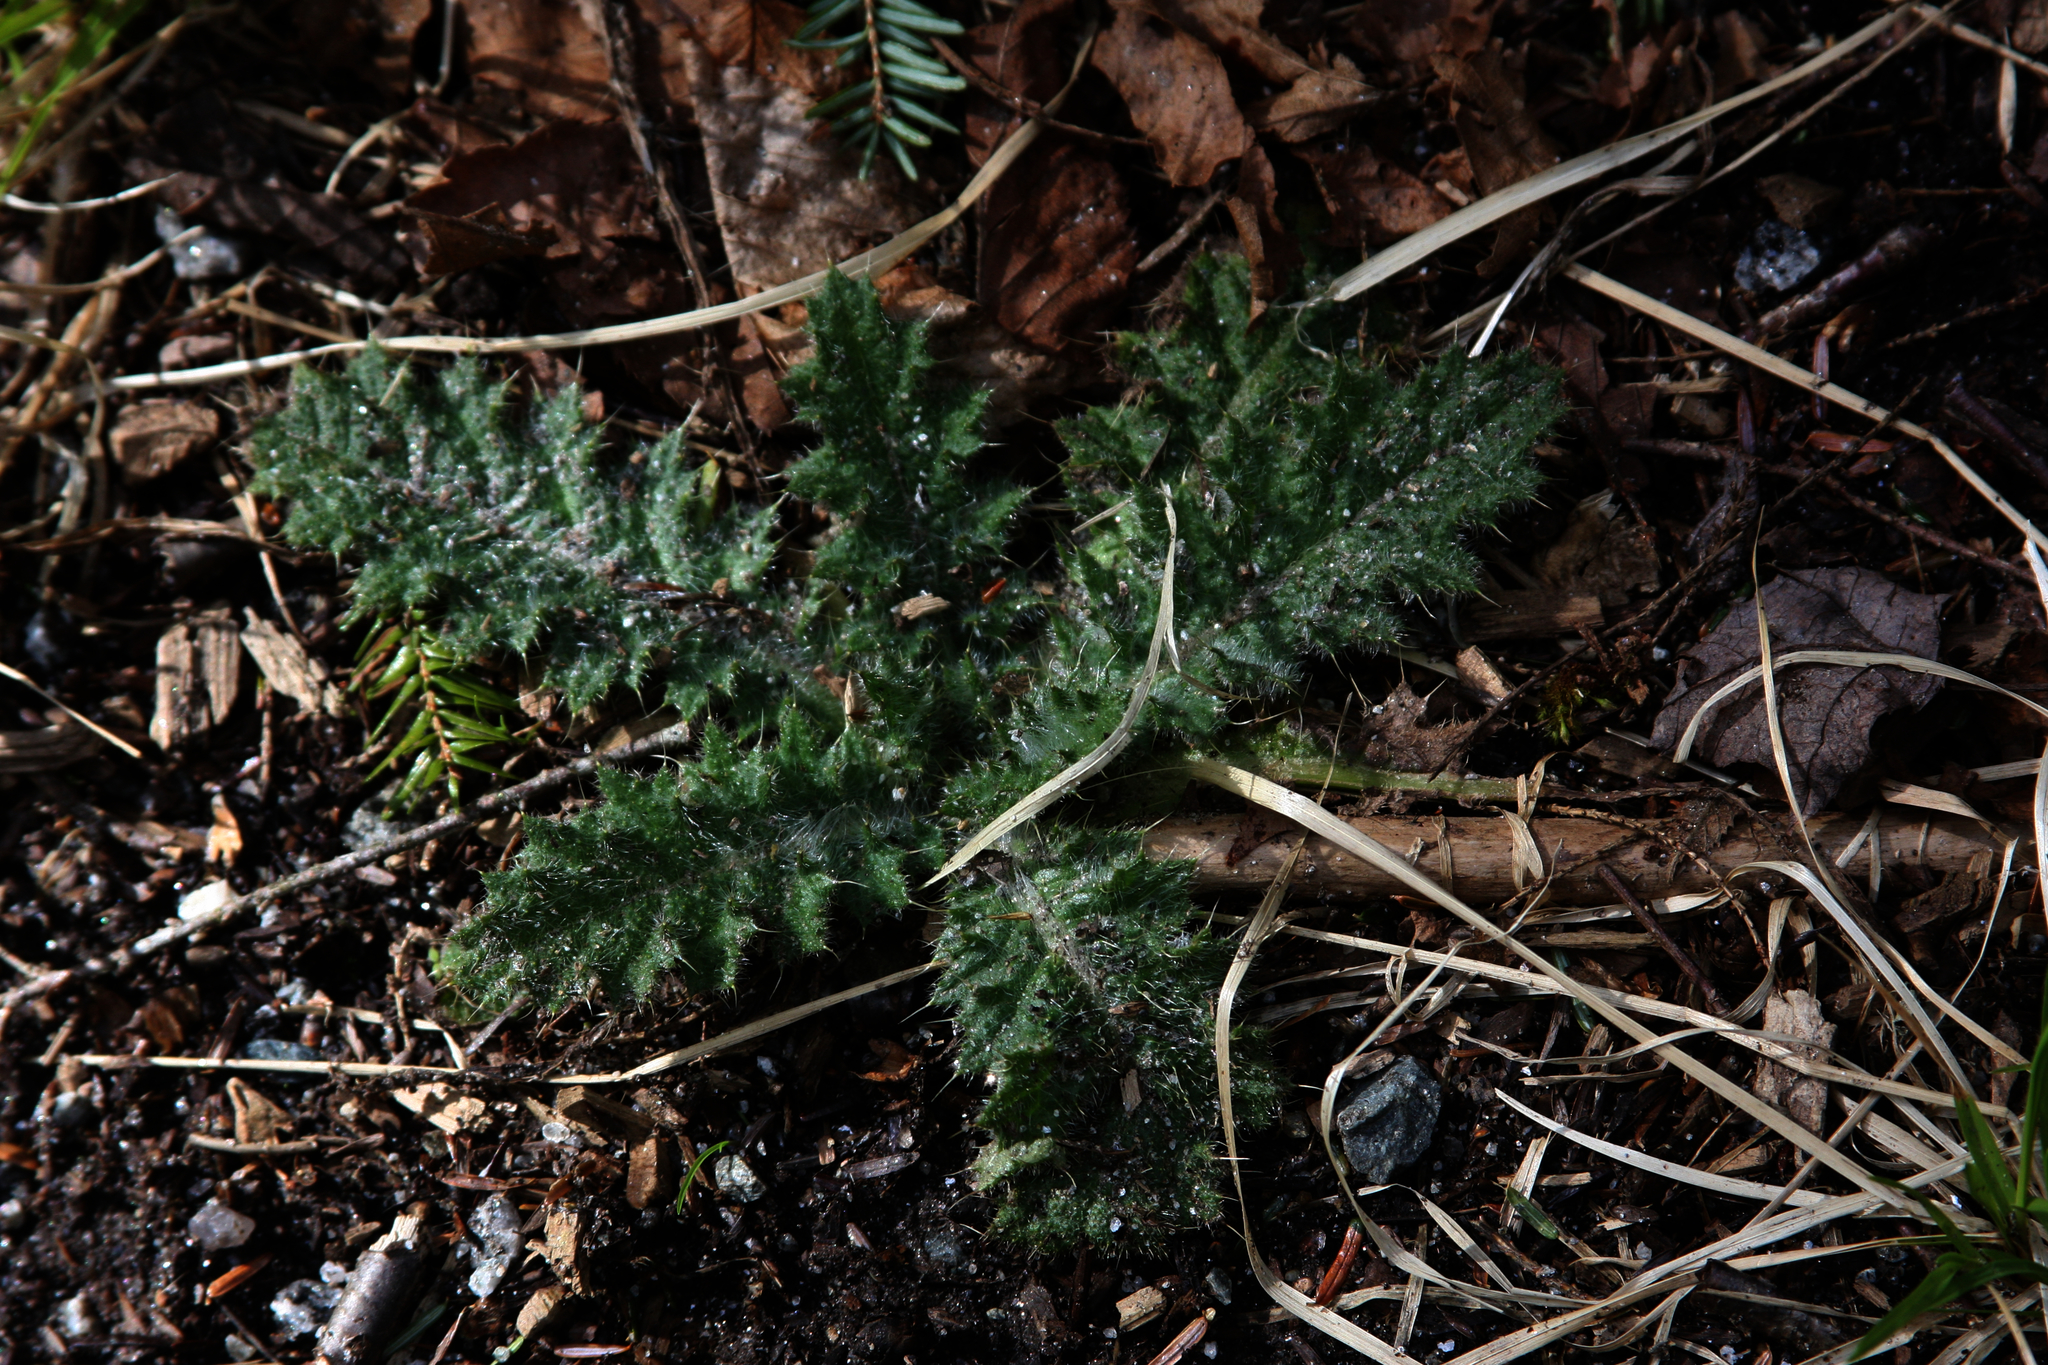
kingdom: Plantae
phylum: Tracheophyta
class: Magnoliopsida
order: Asterales
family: Asteraceae
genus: Cirsium
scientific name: Cirsium vulgare
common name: Bull thistle
